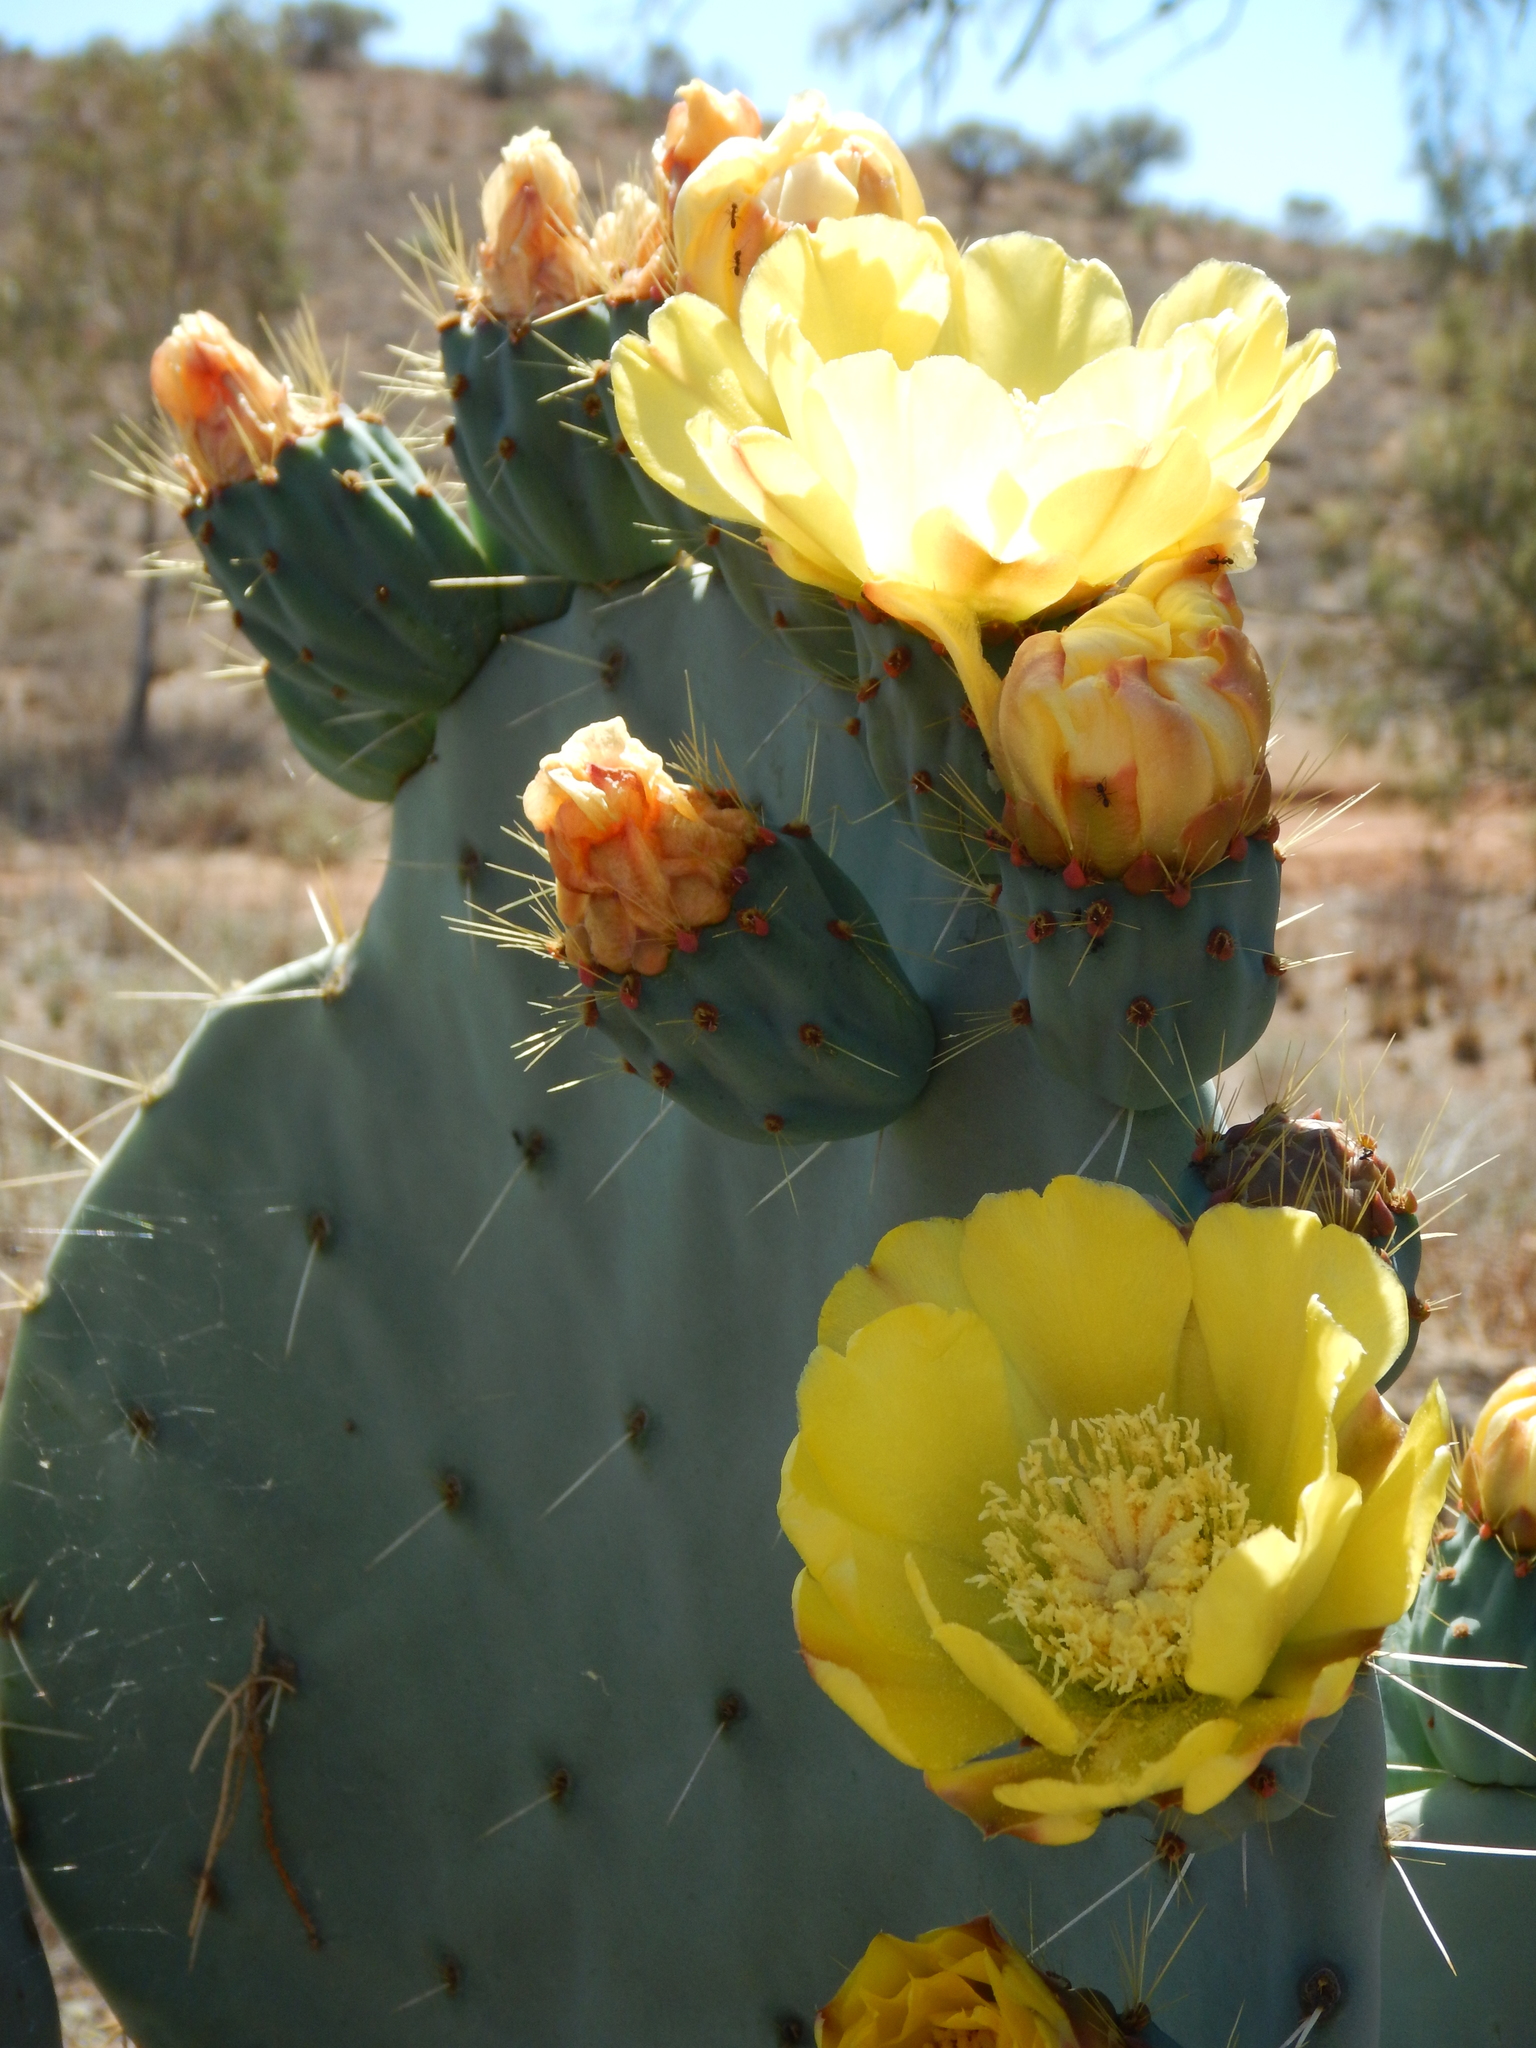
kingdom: Plantae
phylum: Tracheophyta
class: Magnoliopsida
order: Caryophyllales
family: Cactaceae
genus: Opuntia
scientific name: Opuntia robusta
